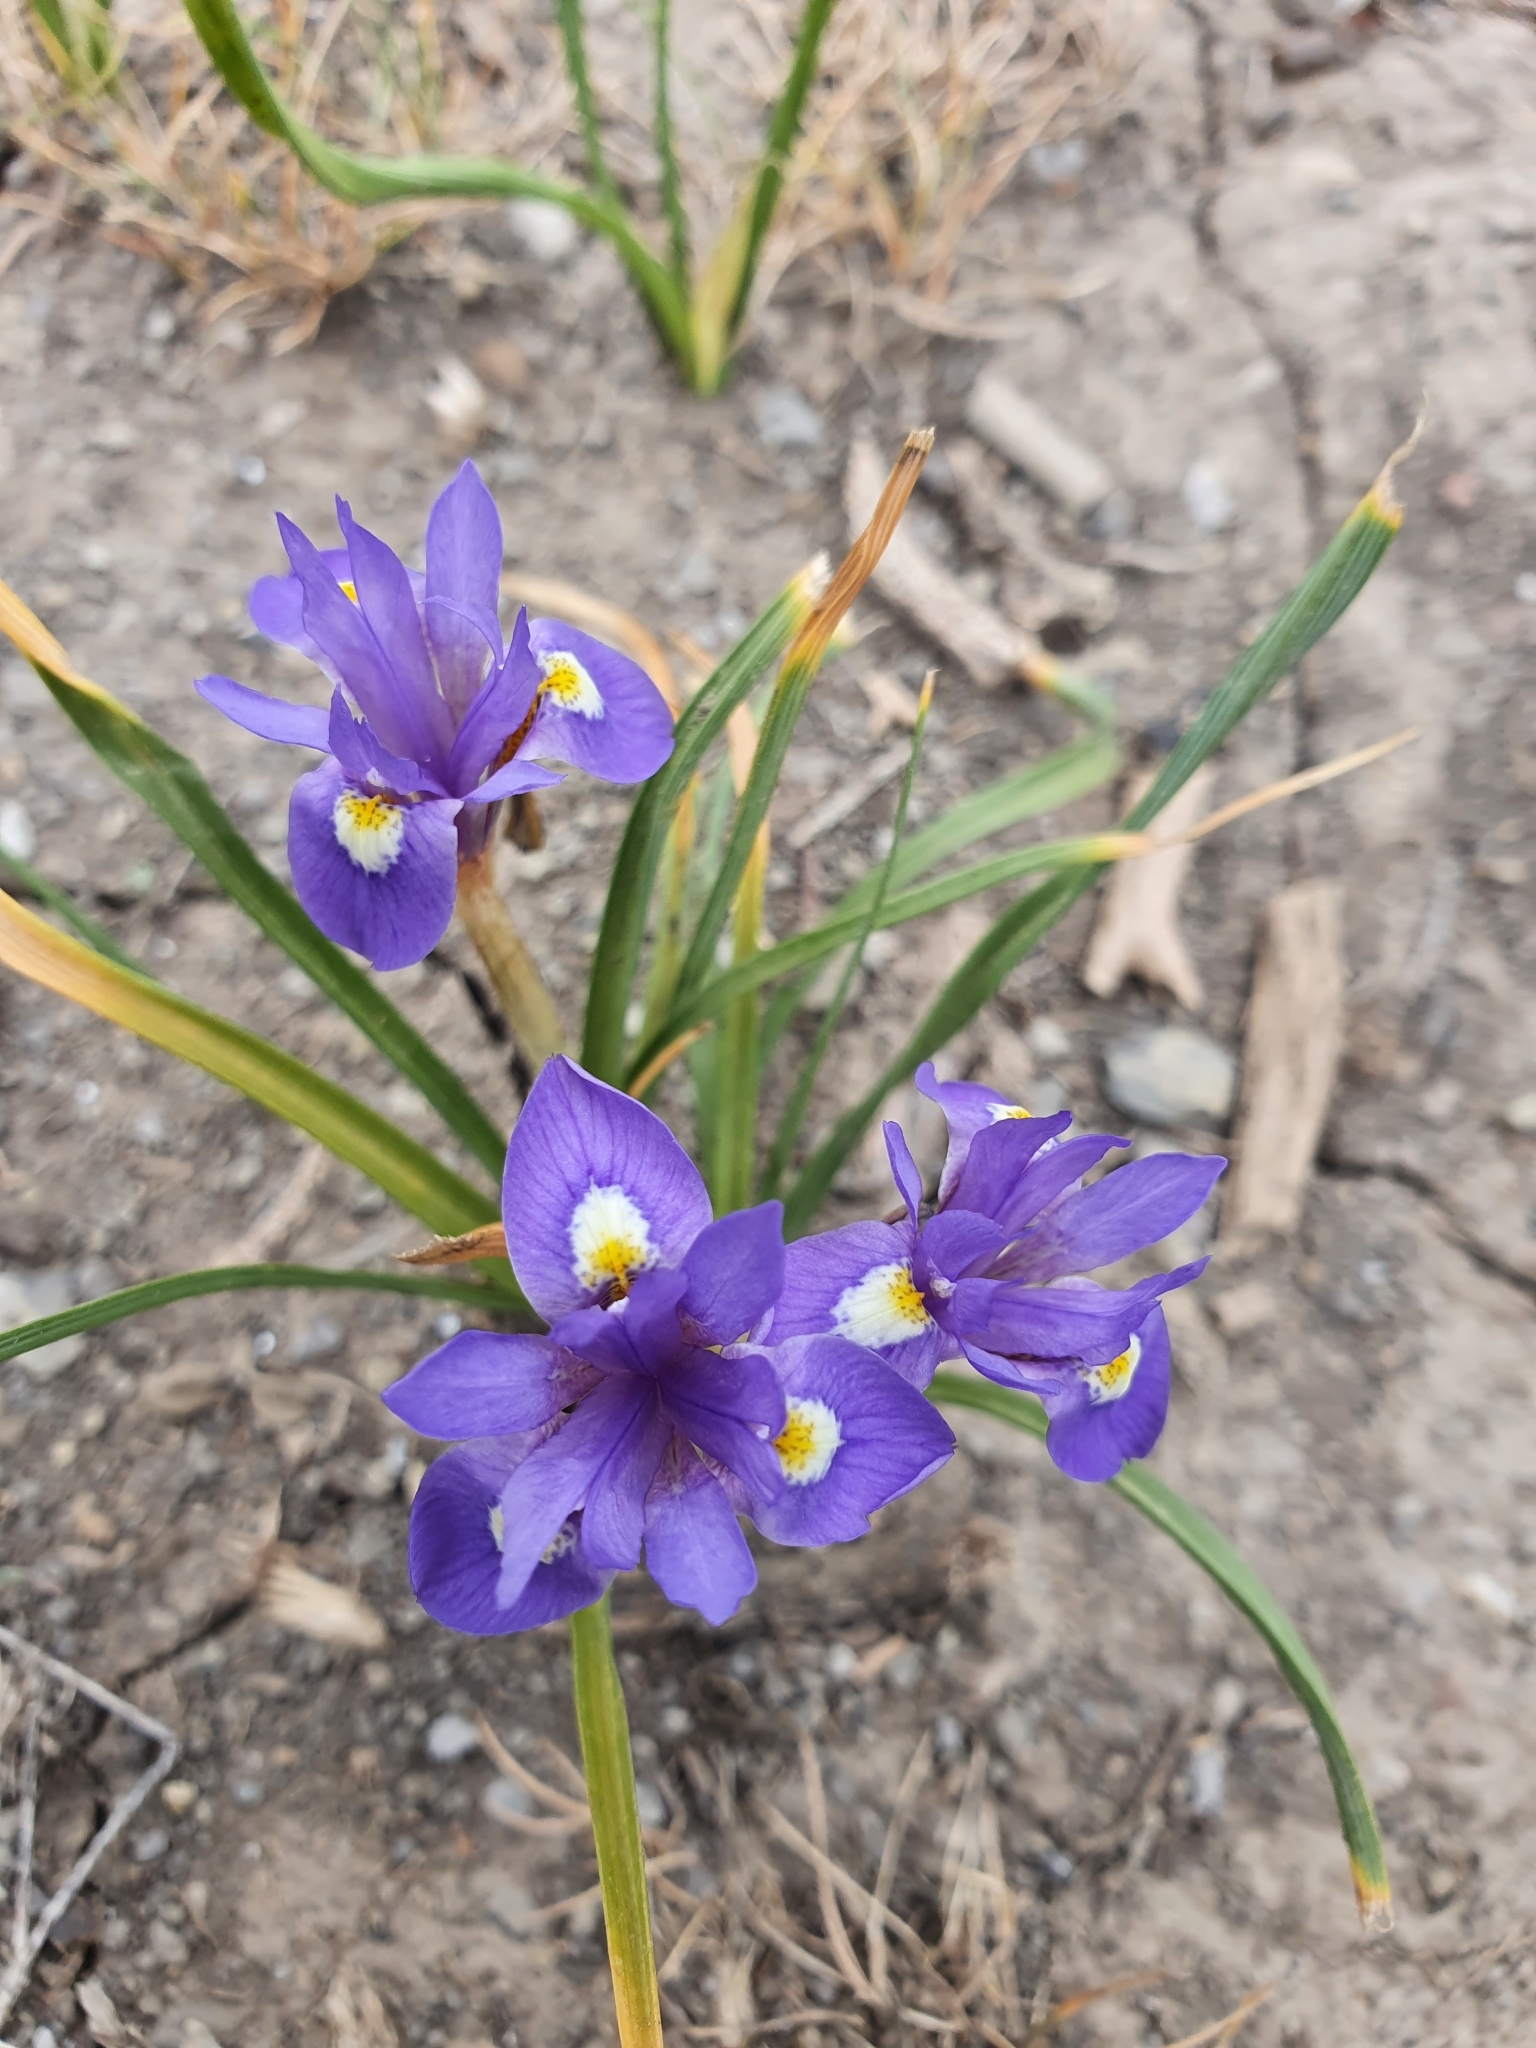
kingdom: Plantae
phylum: Tracheophyta
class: Liliopsida
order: Asparagales
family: Iridaceae
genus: Moraea
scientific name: Moraea sisyrinchium
